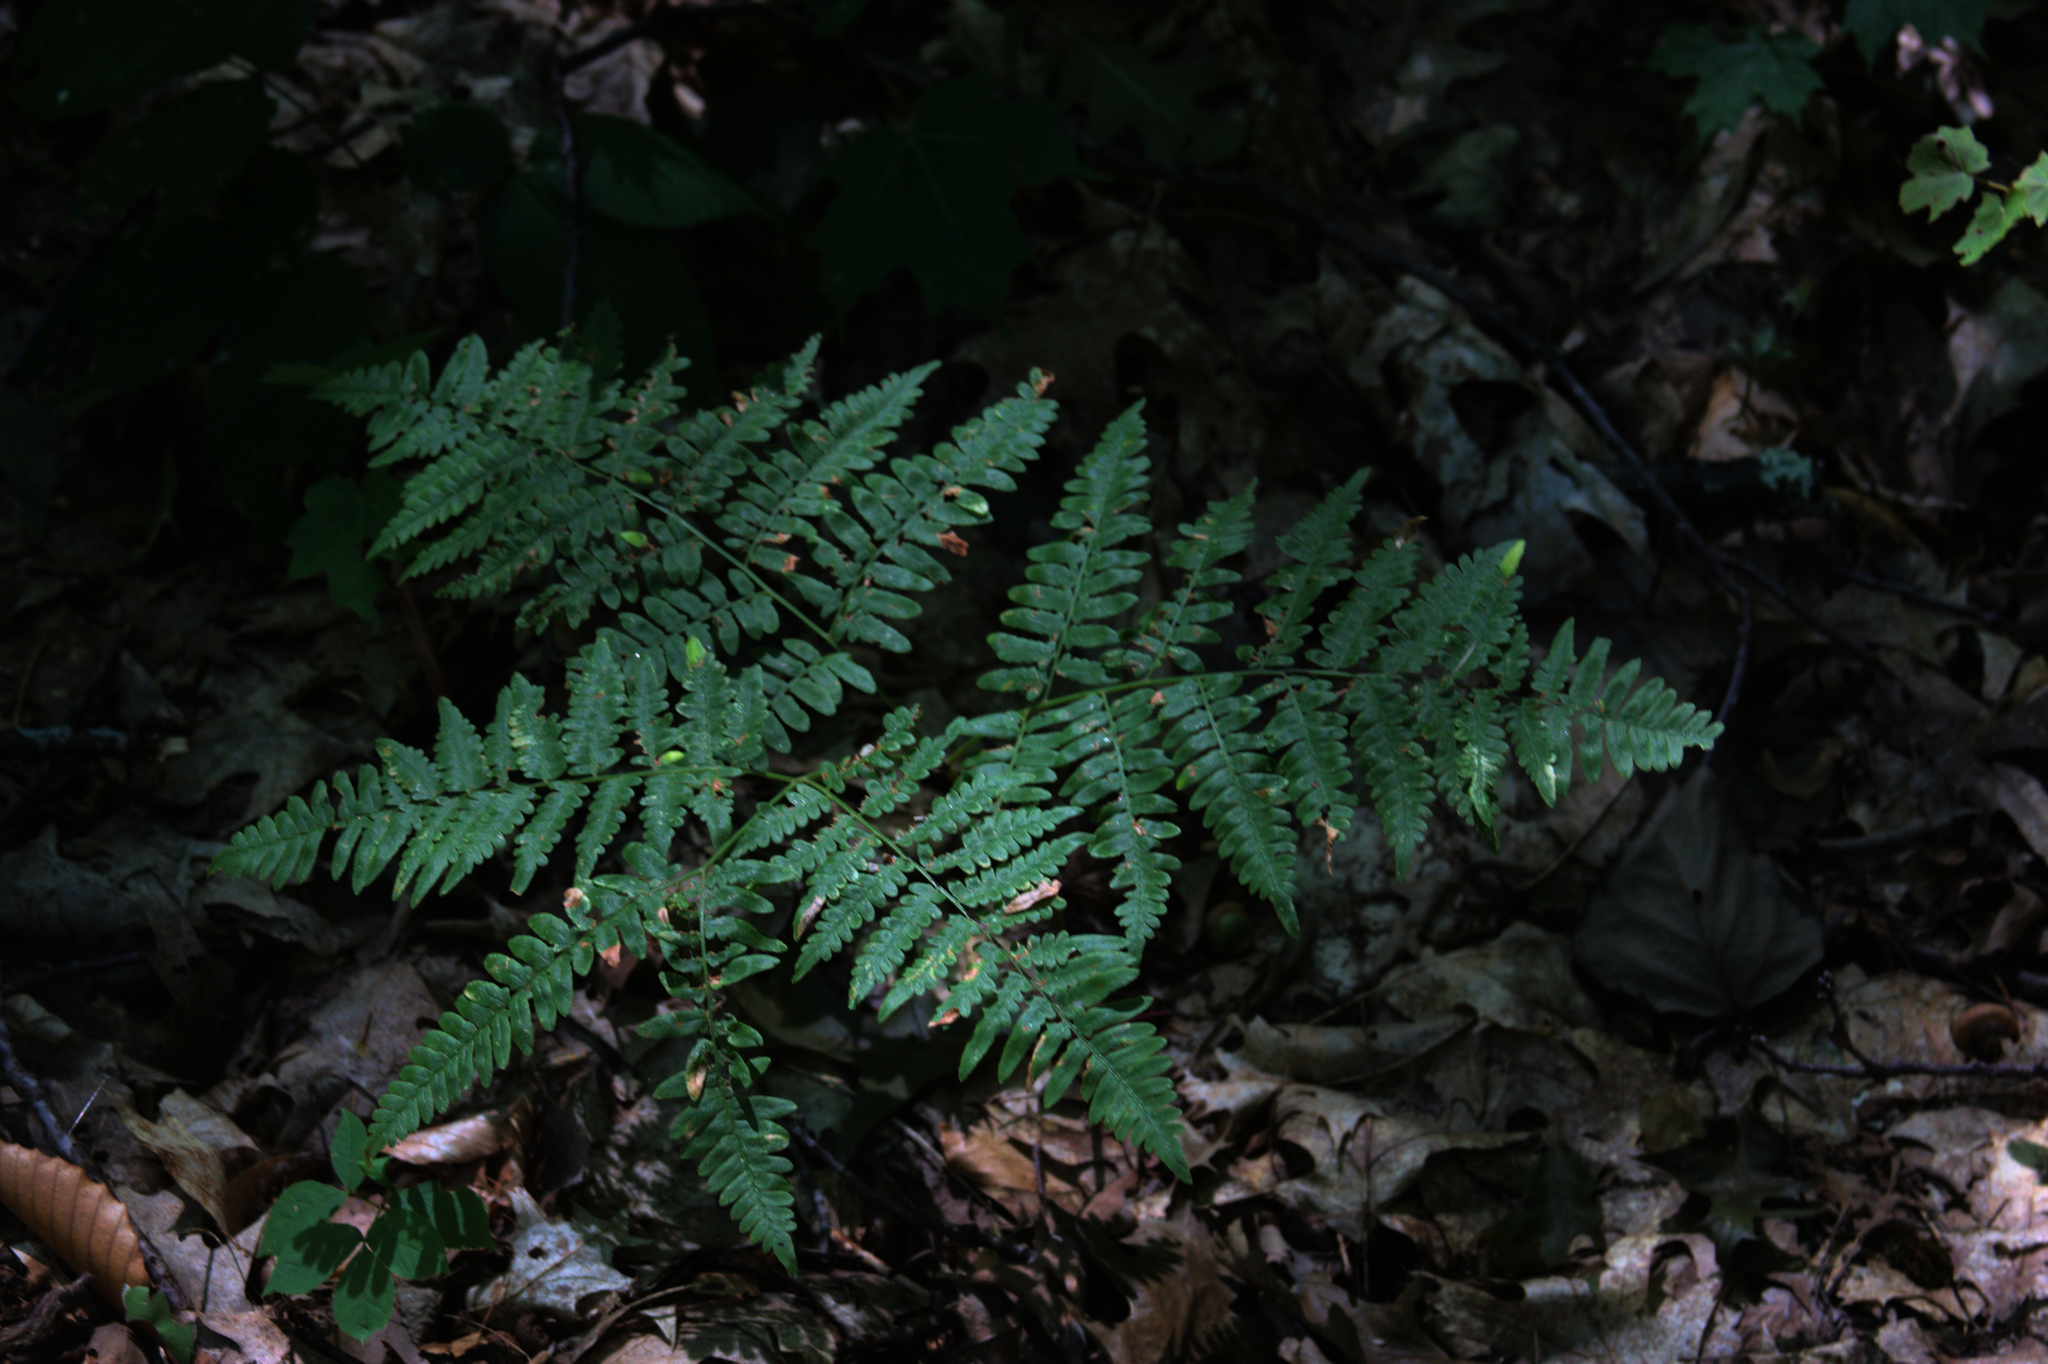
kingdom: Plantae
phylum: Tracheophyta
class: Polypodiopsida
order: Polypodiales
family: Dennstaedtiaceae
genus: Pteridium
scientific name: Pteridium aquilinum
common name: Bracken
